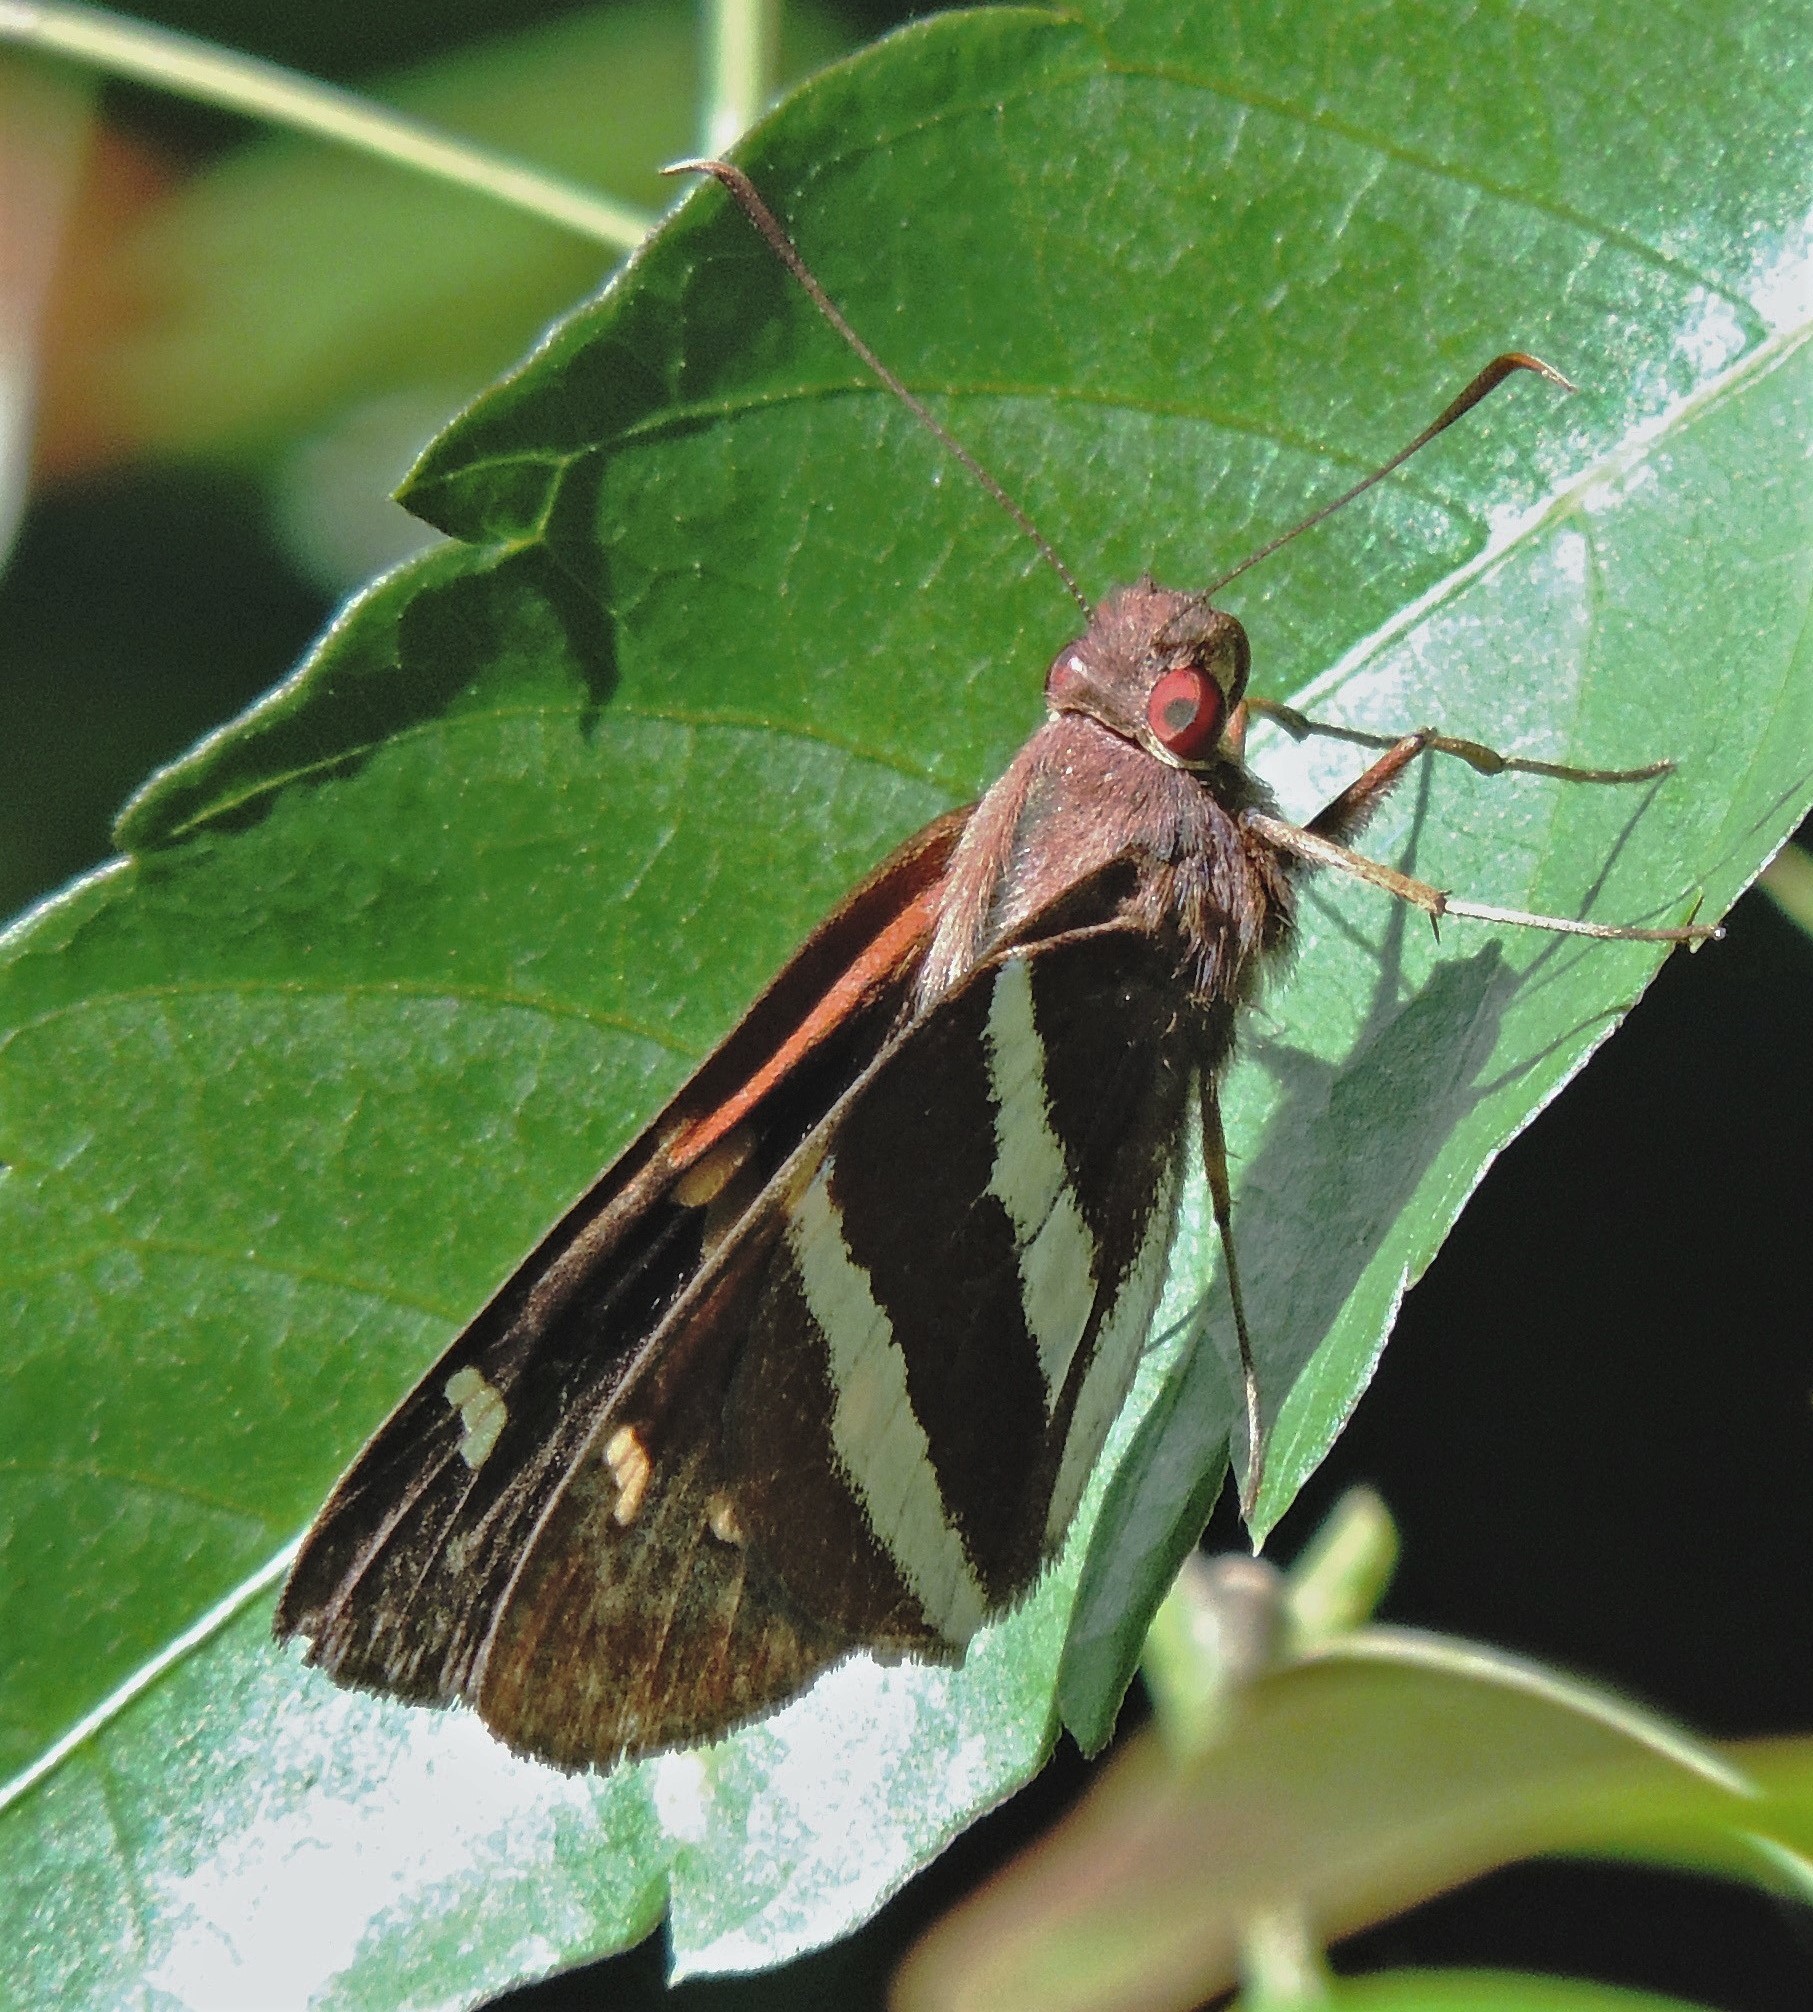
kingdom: Animalia
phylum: Arthropoda
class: Insecta
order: Lepidoptera
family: Hesperiidae
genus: Lycas
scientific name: Lycas argentea
